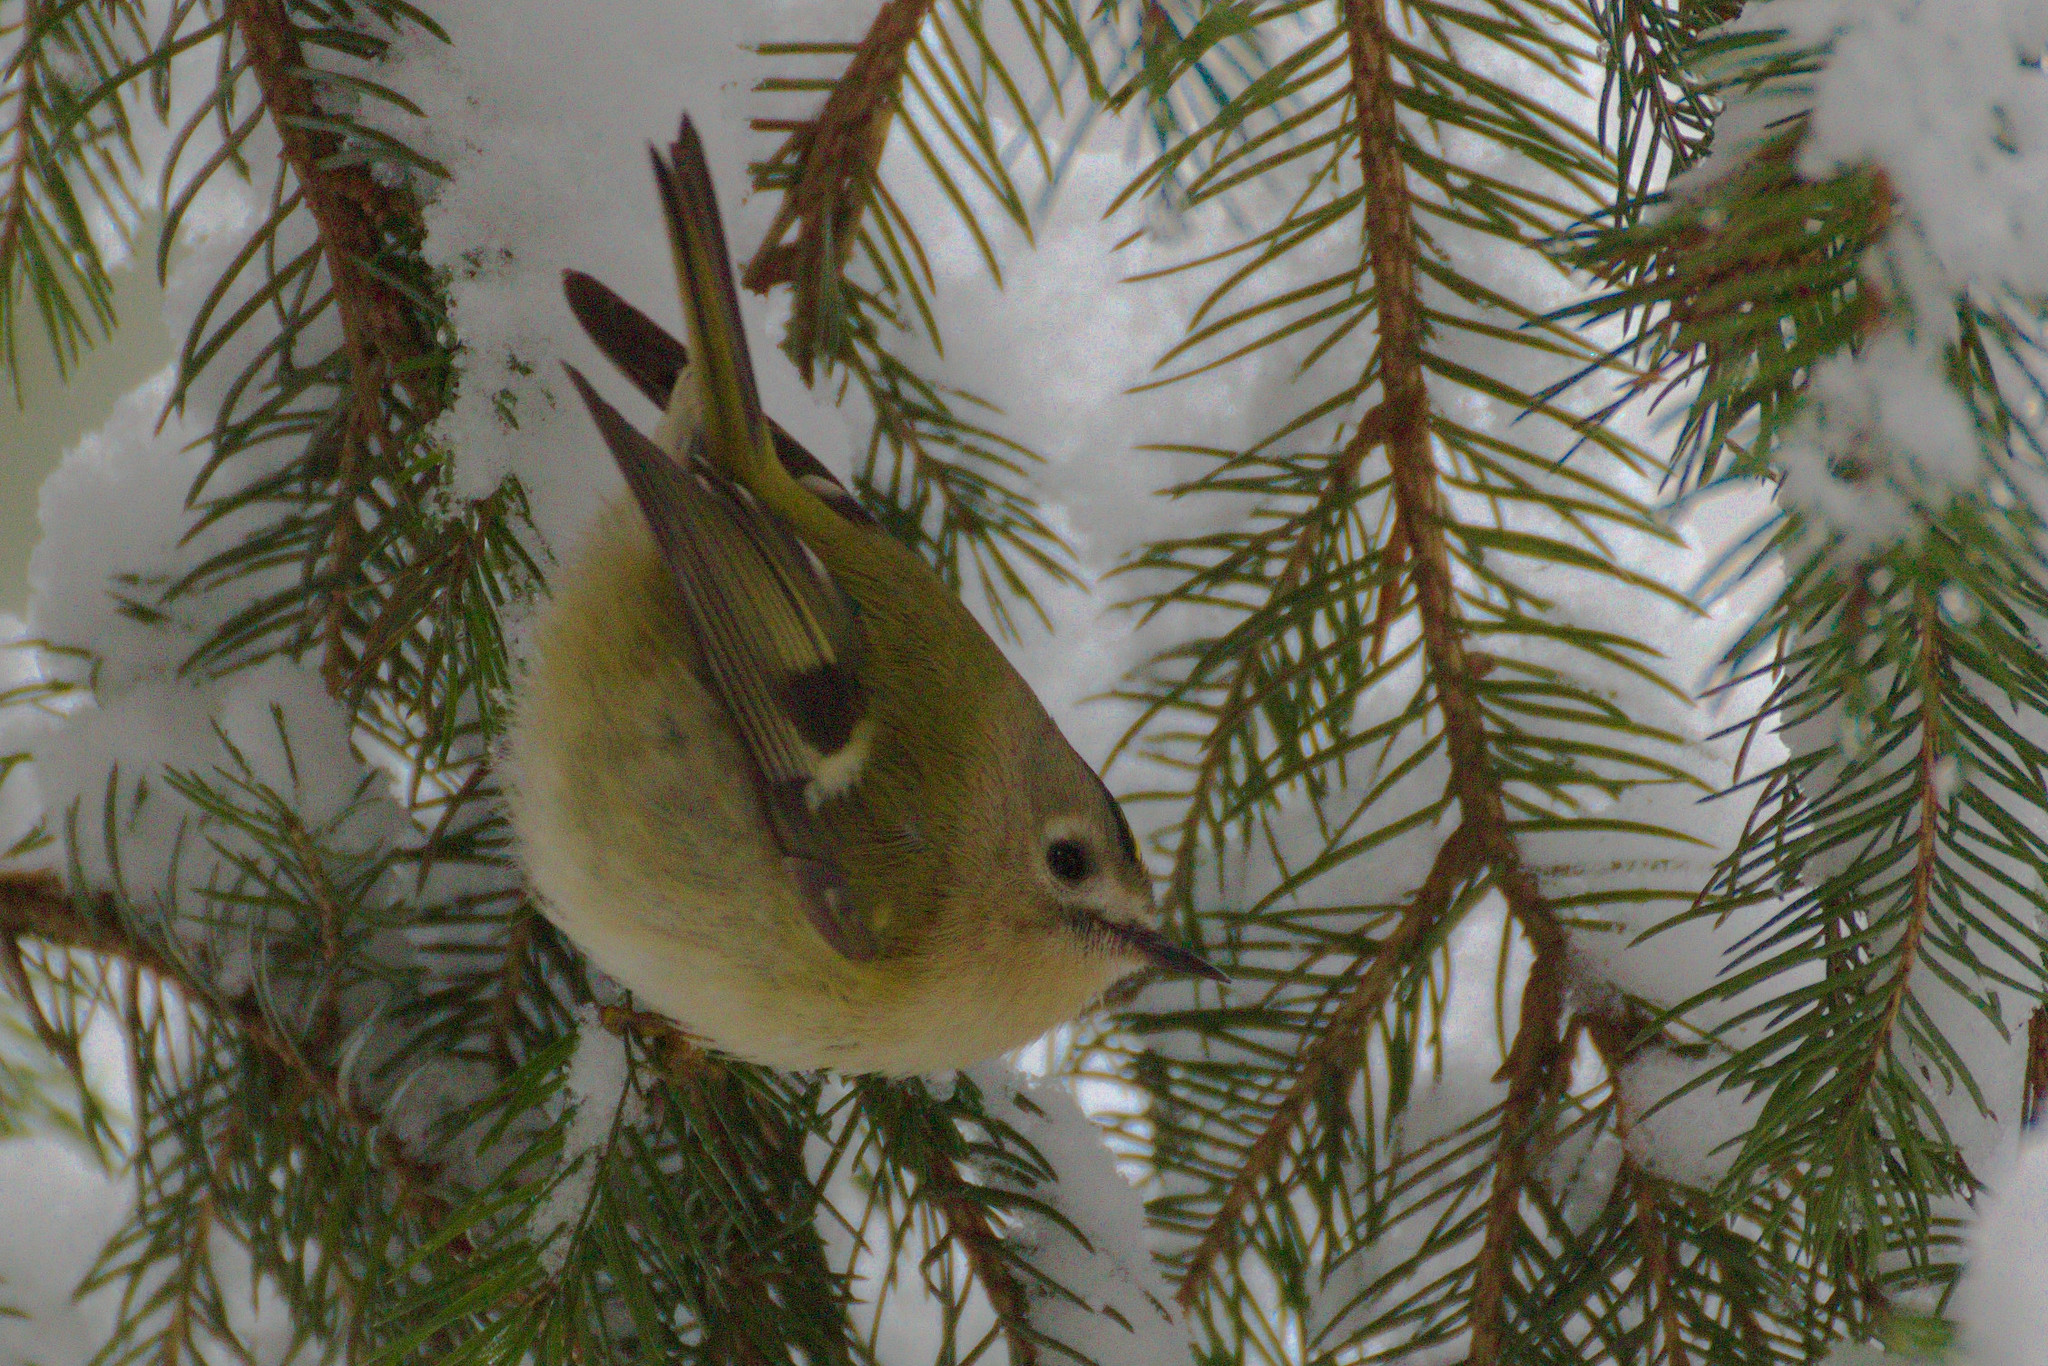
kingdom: Animalia
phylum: Chordata
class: Aves
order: Passeriformes
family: Regulidae
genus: Regulus
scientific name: Regulus regulus
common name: Goldcrest
